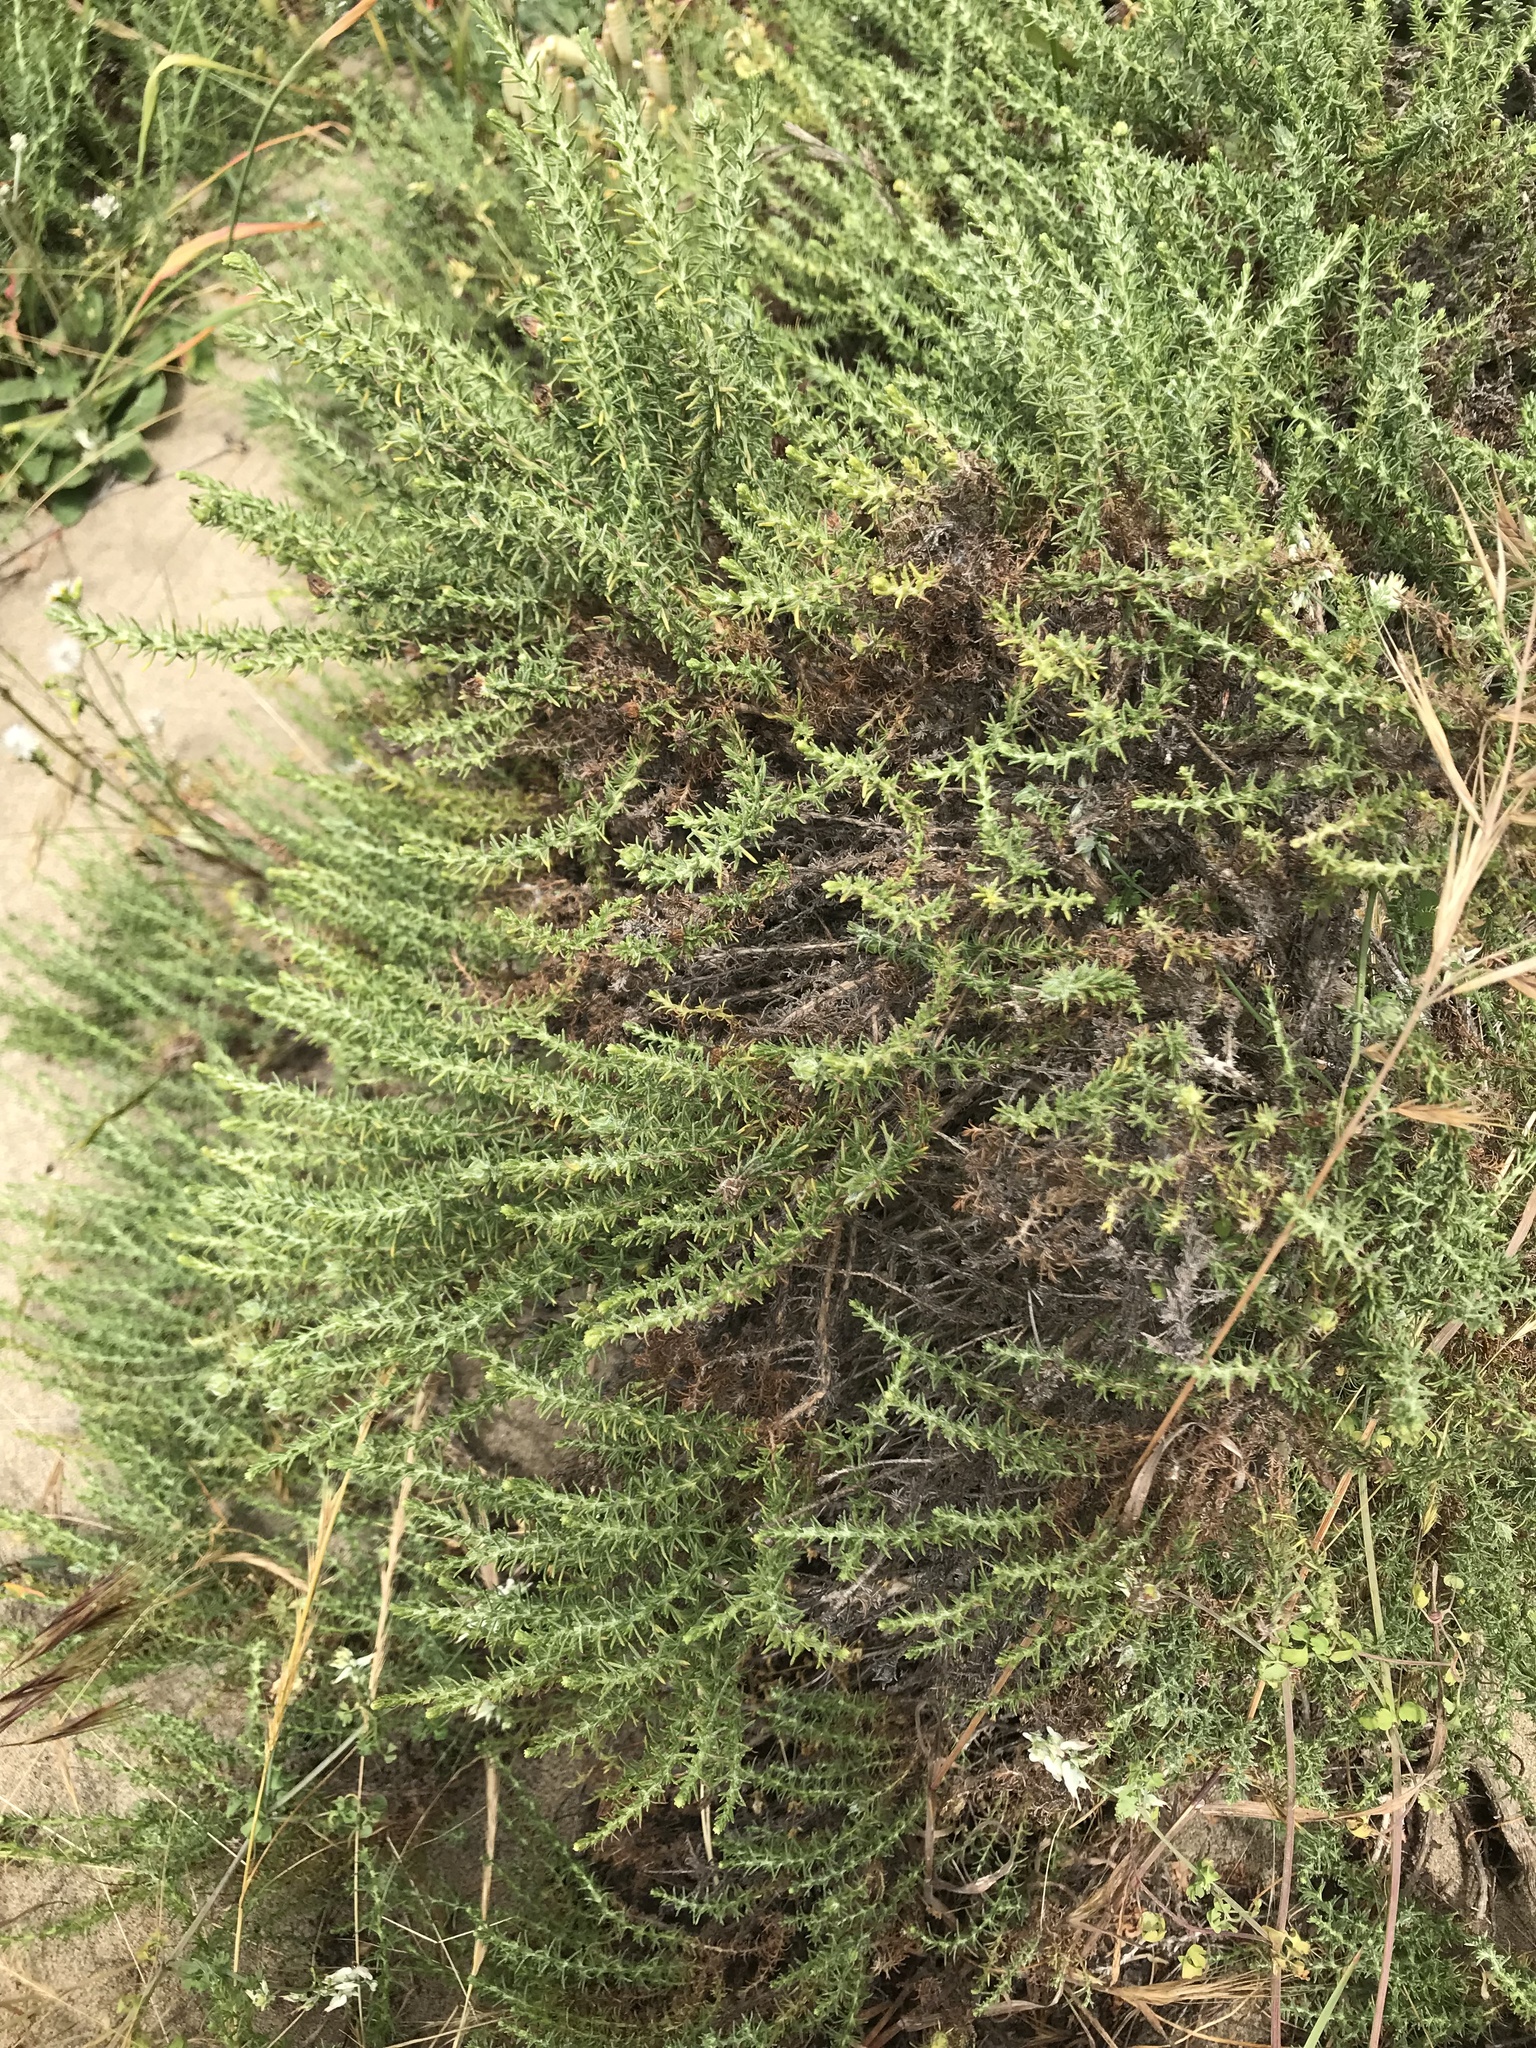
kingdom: Plantae
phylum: Tracheophyta
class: Magnoliopsida
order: Asterales
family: Asteraceae
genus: Ericameria
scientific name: Ericameria ericoides
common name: California goldenbush
